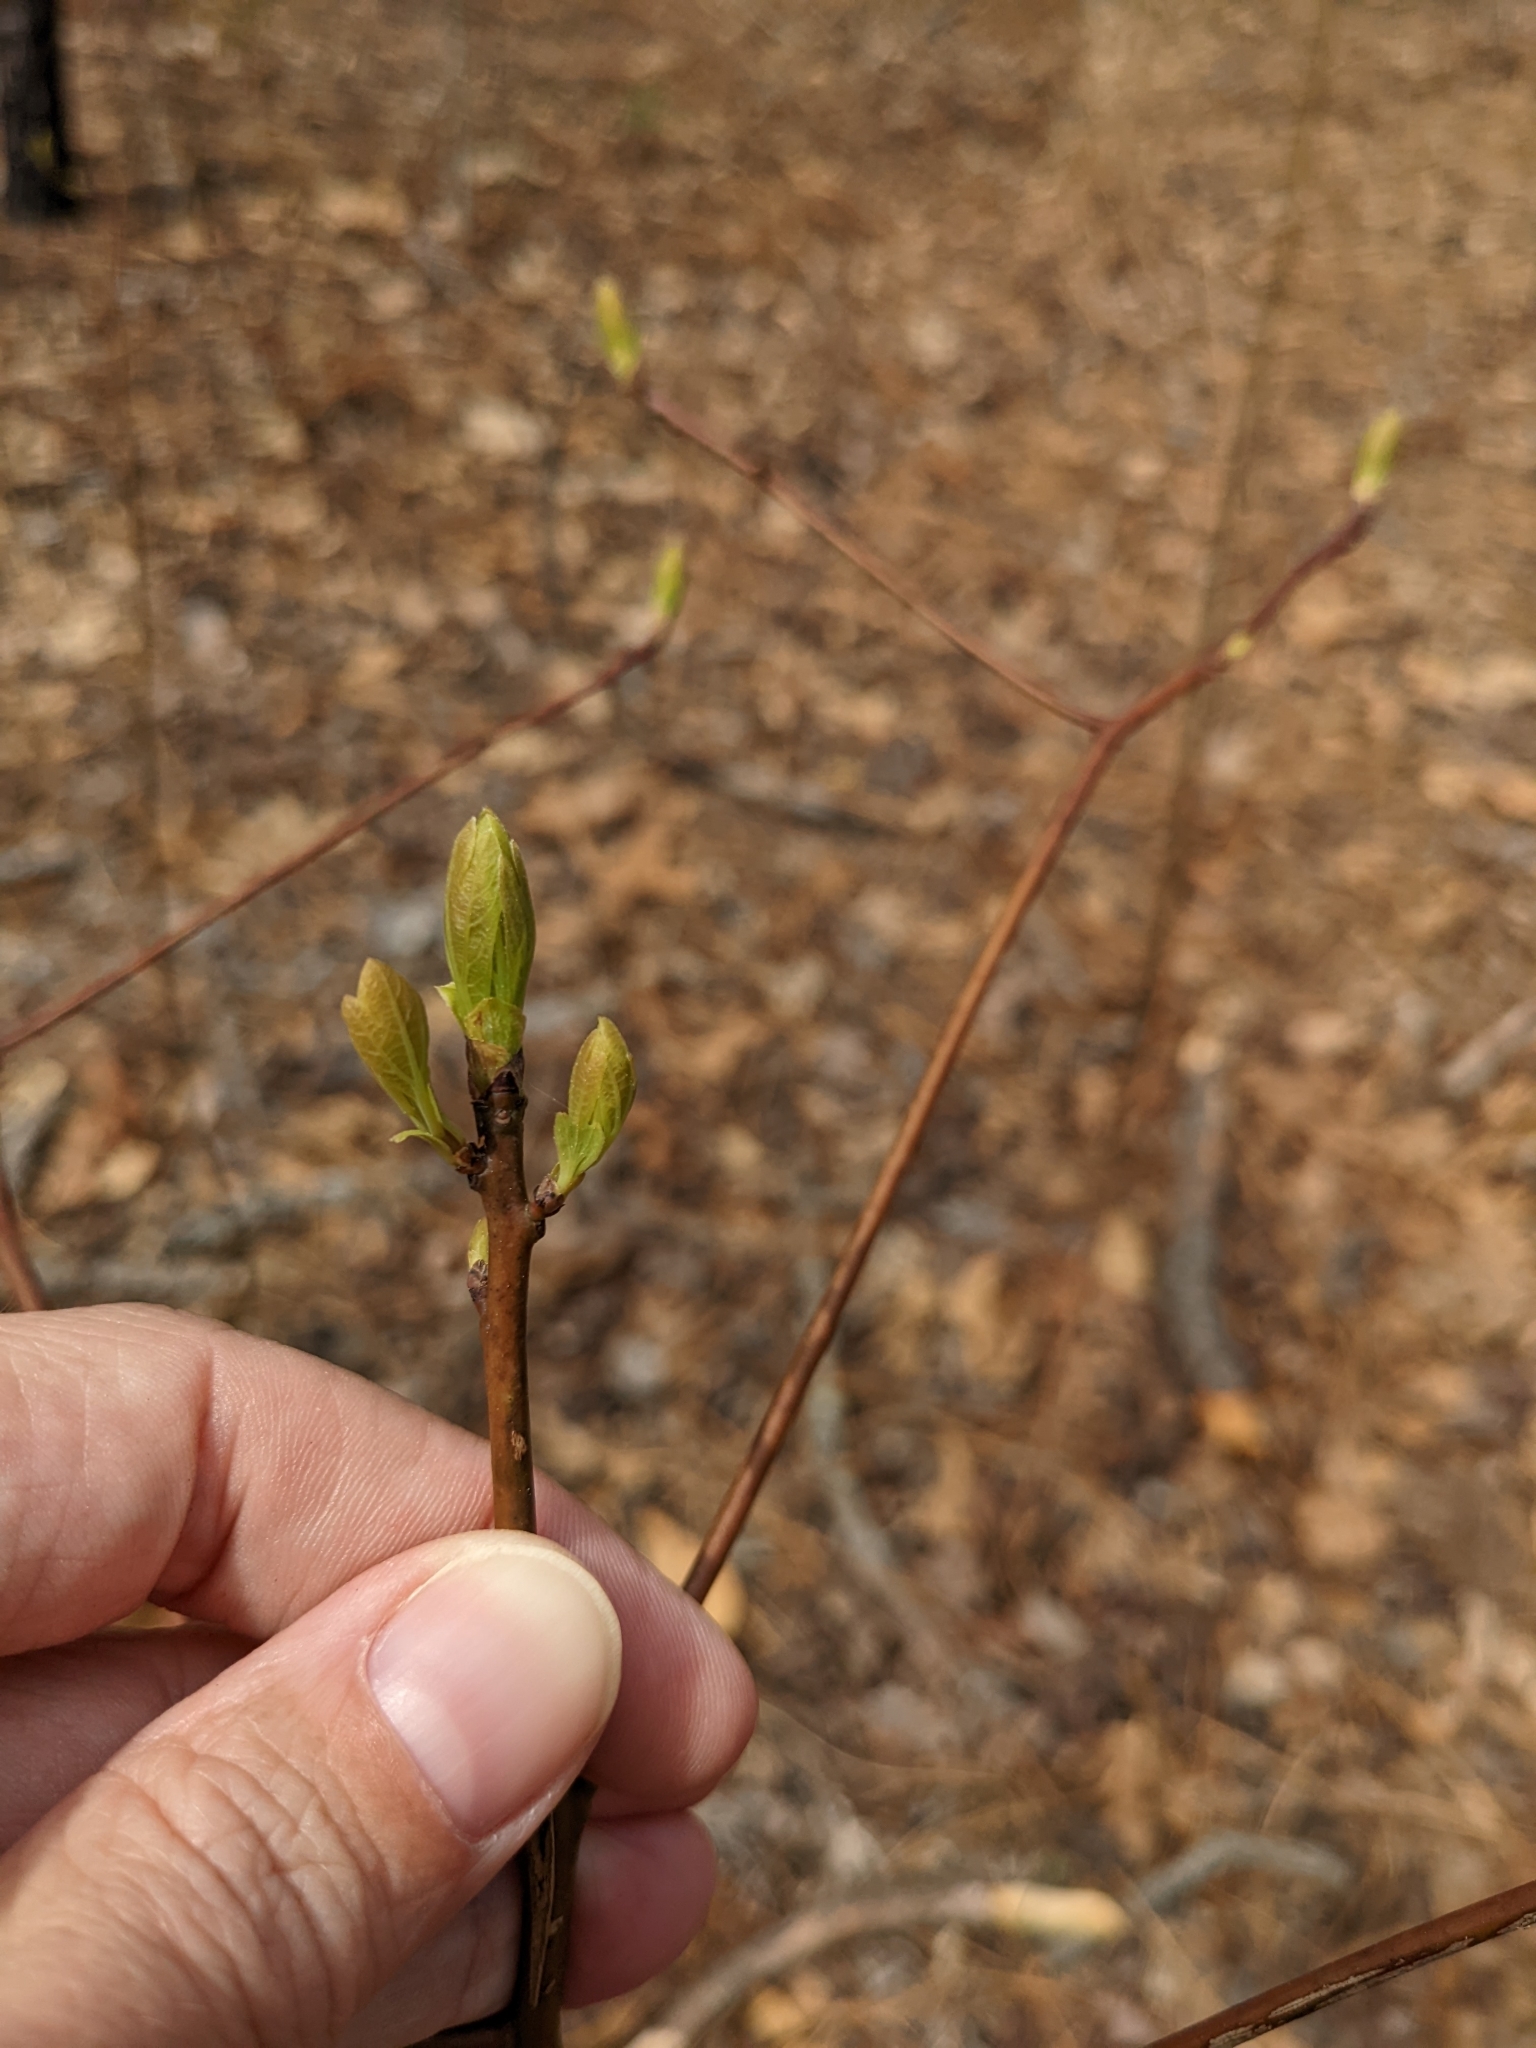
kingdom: Plantae
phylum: Tracheophyta
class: Magnoliopsida
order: Laurales
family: Lauraceae
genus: Sassafras
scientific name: Sassafras albidum
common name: Sassafras
